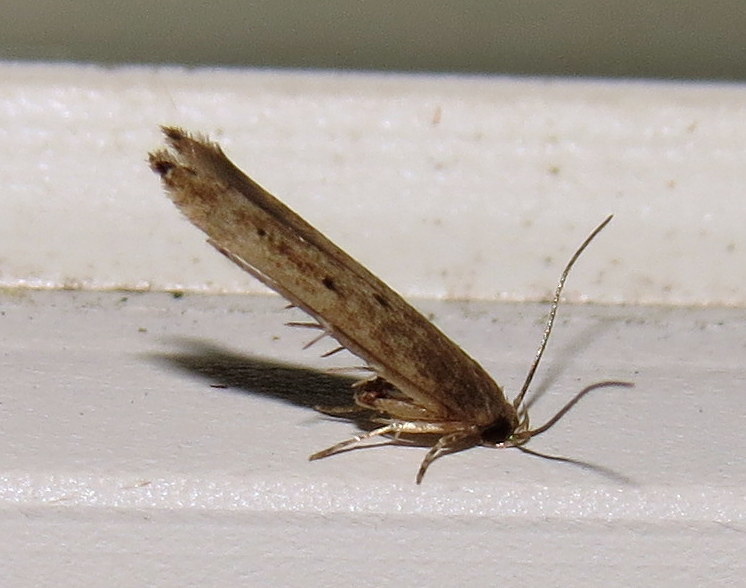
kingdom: Animalia
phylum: Arthropoda
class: Insecta
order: Lepidoptera
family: Cosmopterigidae
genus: Ithome
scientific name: Ithome erransella
